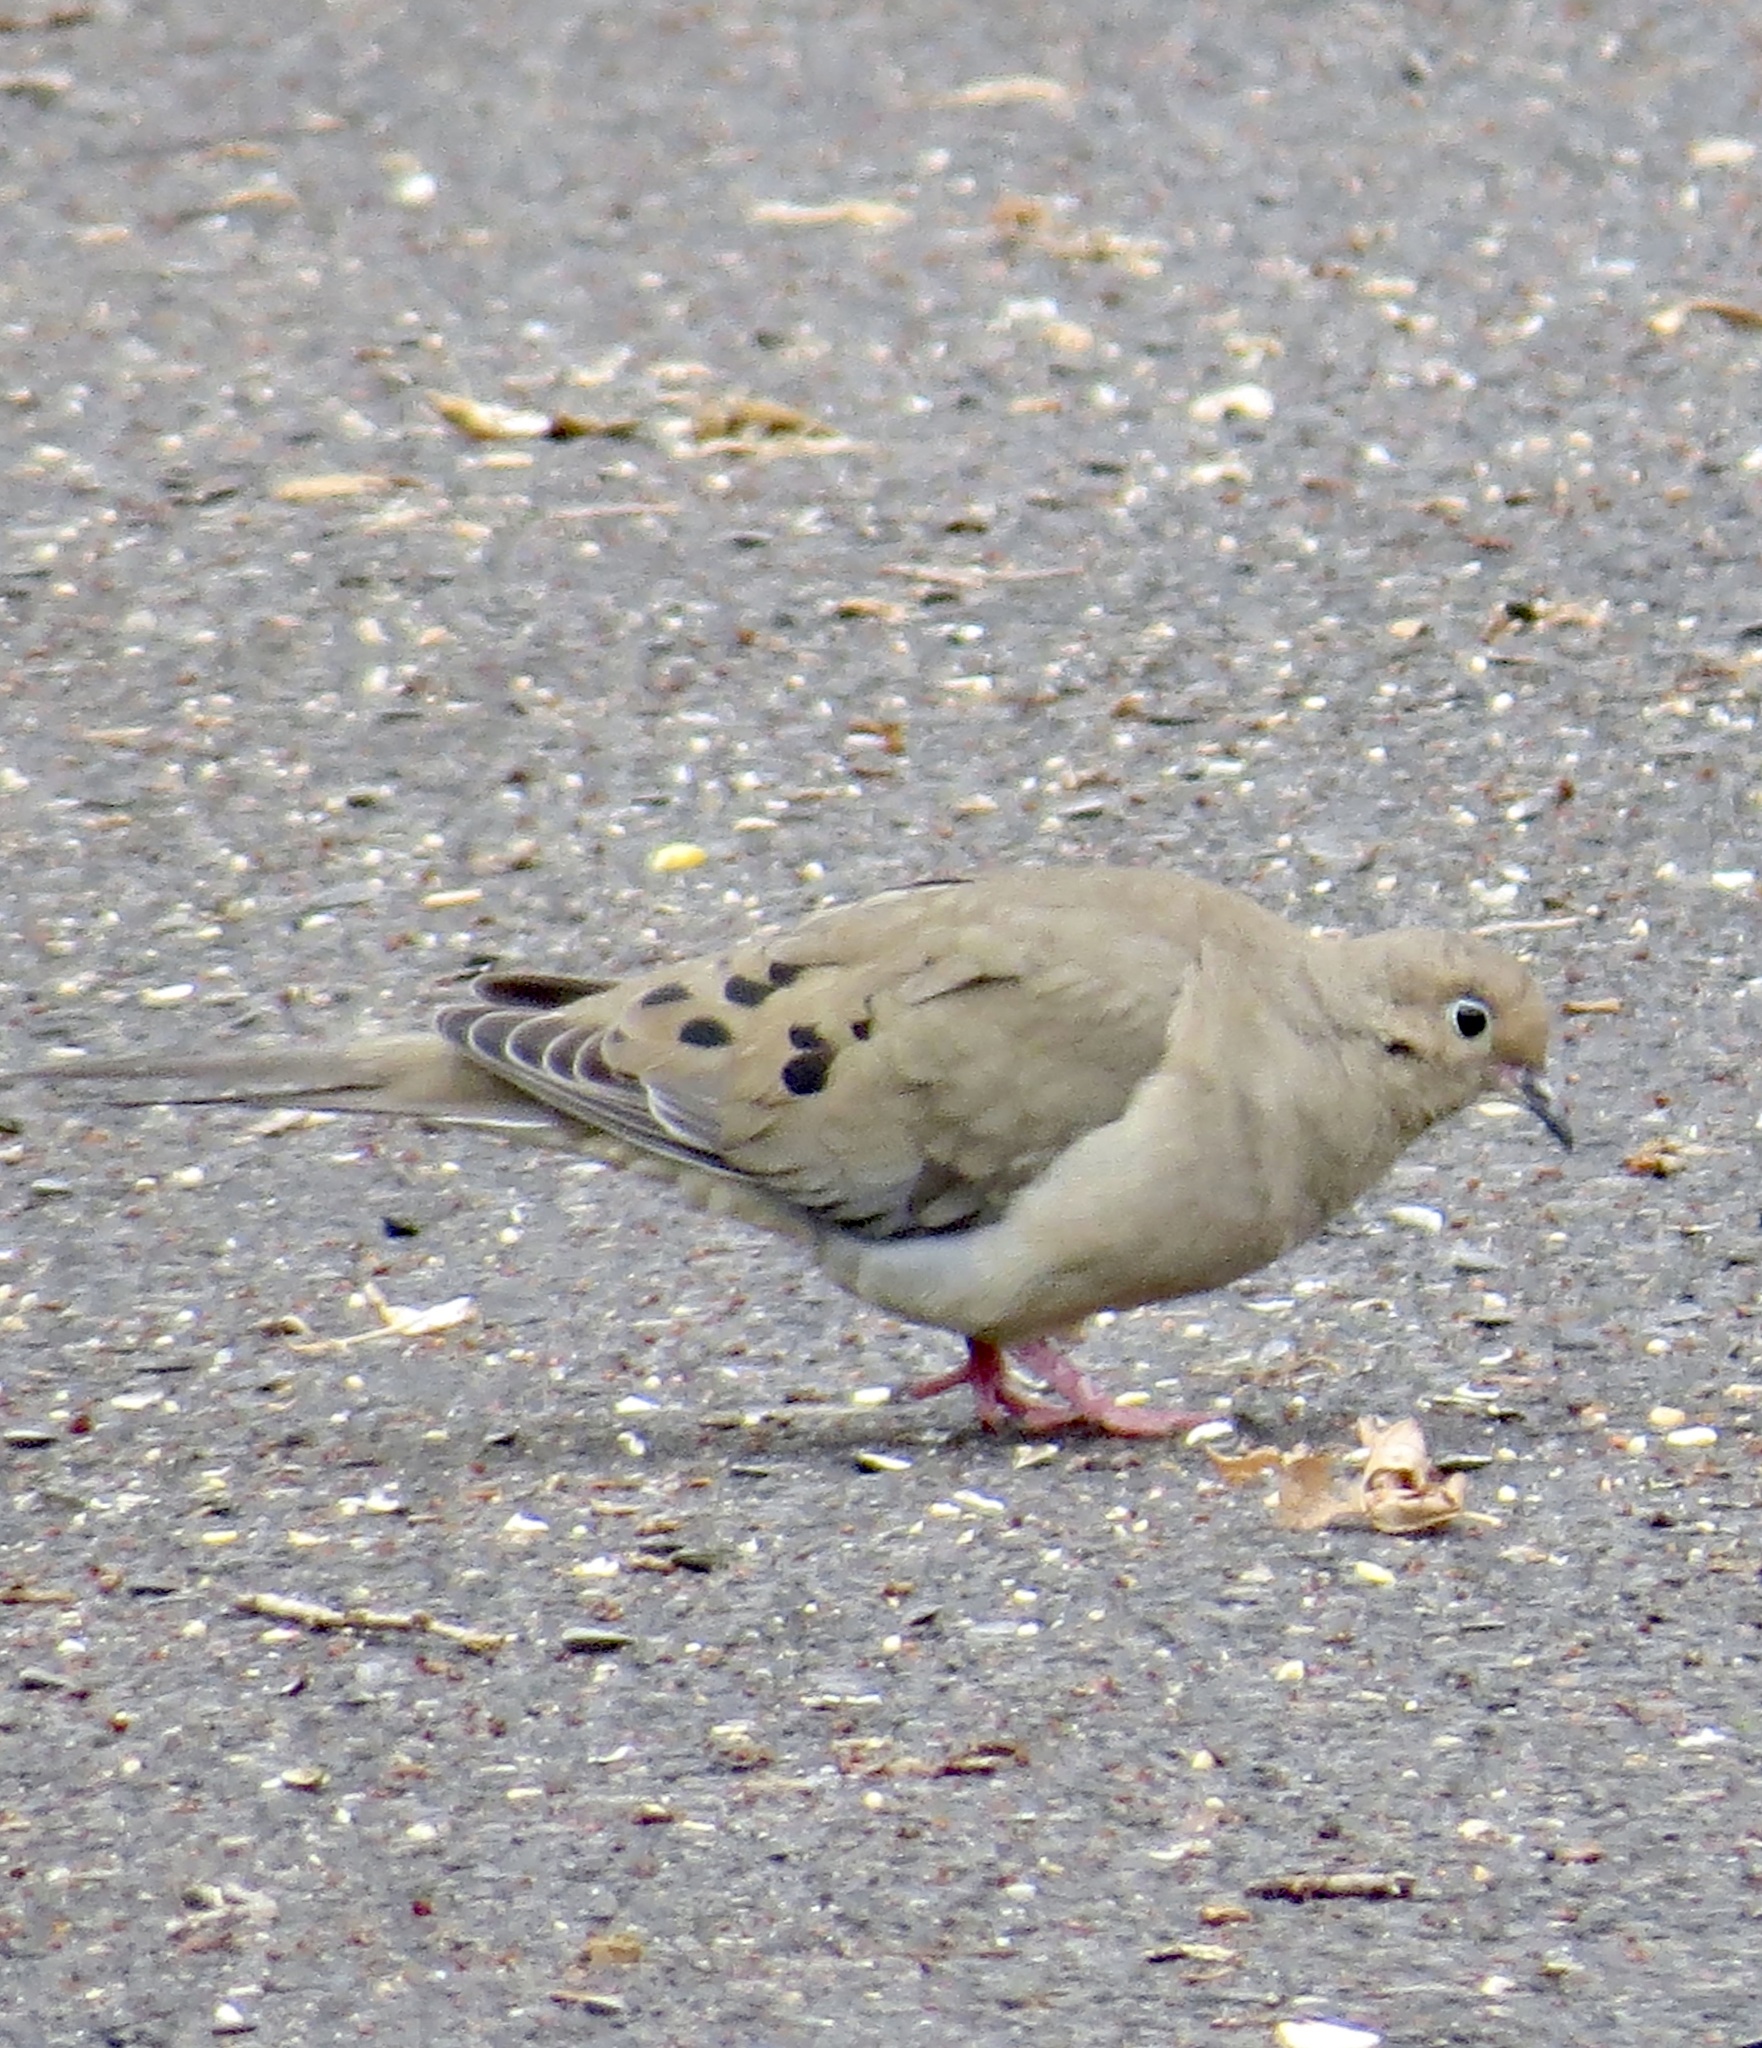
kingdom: Animalia
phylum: Chordata
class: Aves
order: Columbiformes
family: Columbidae
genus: Zenaida
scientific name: Zenaida macroura
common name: Mourning dove
